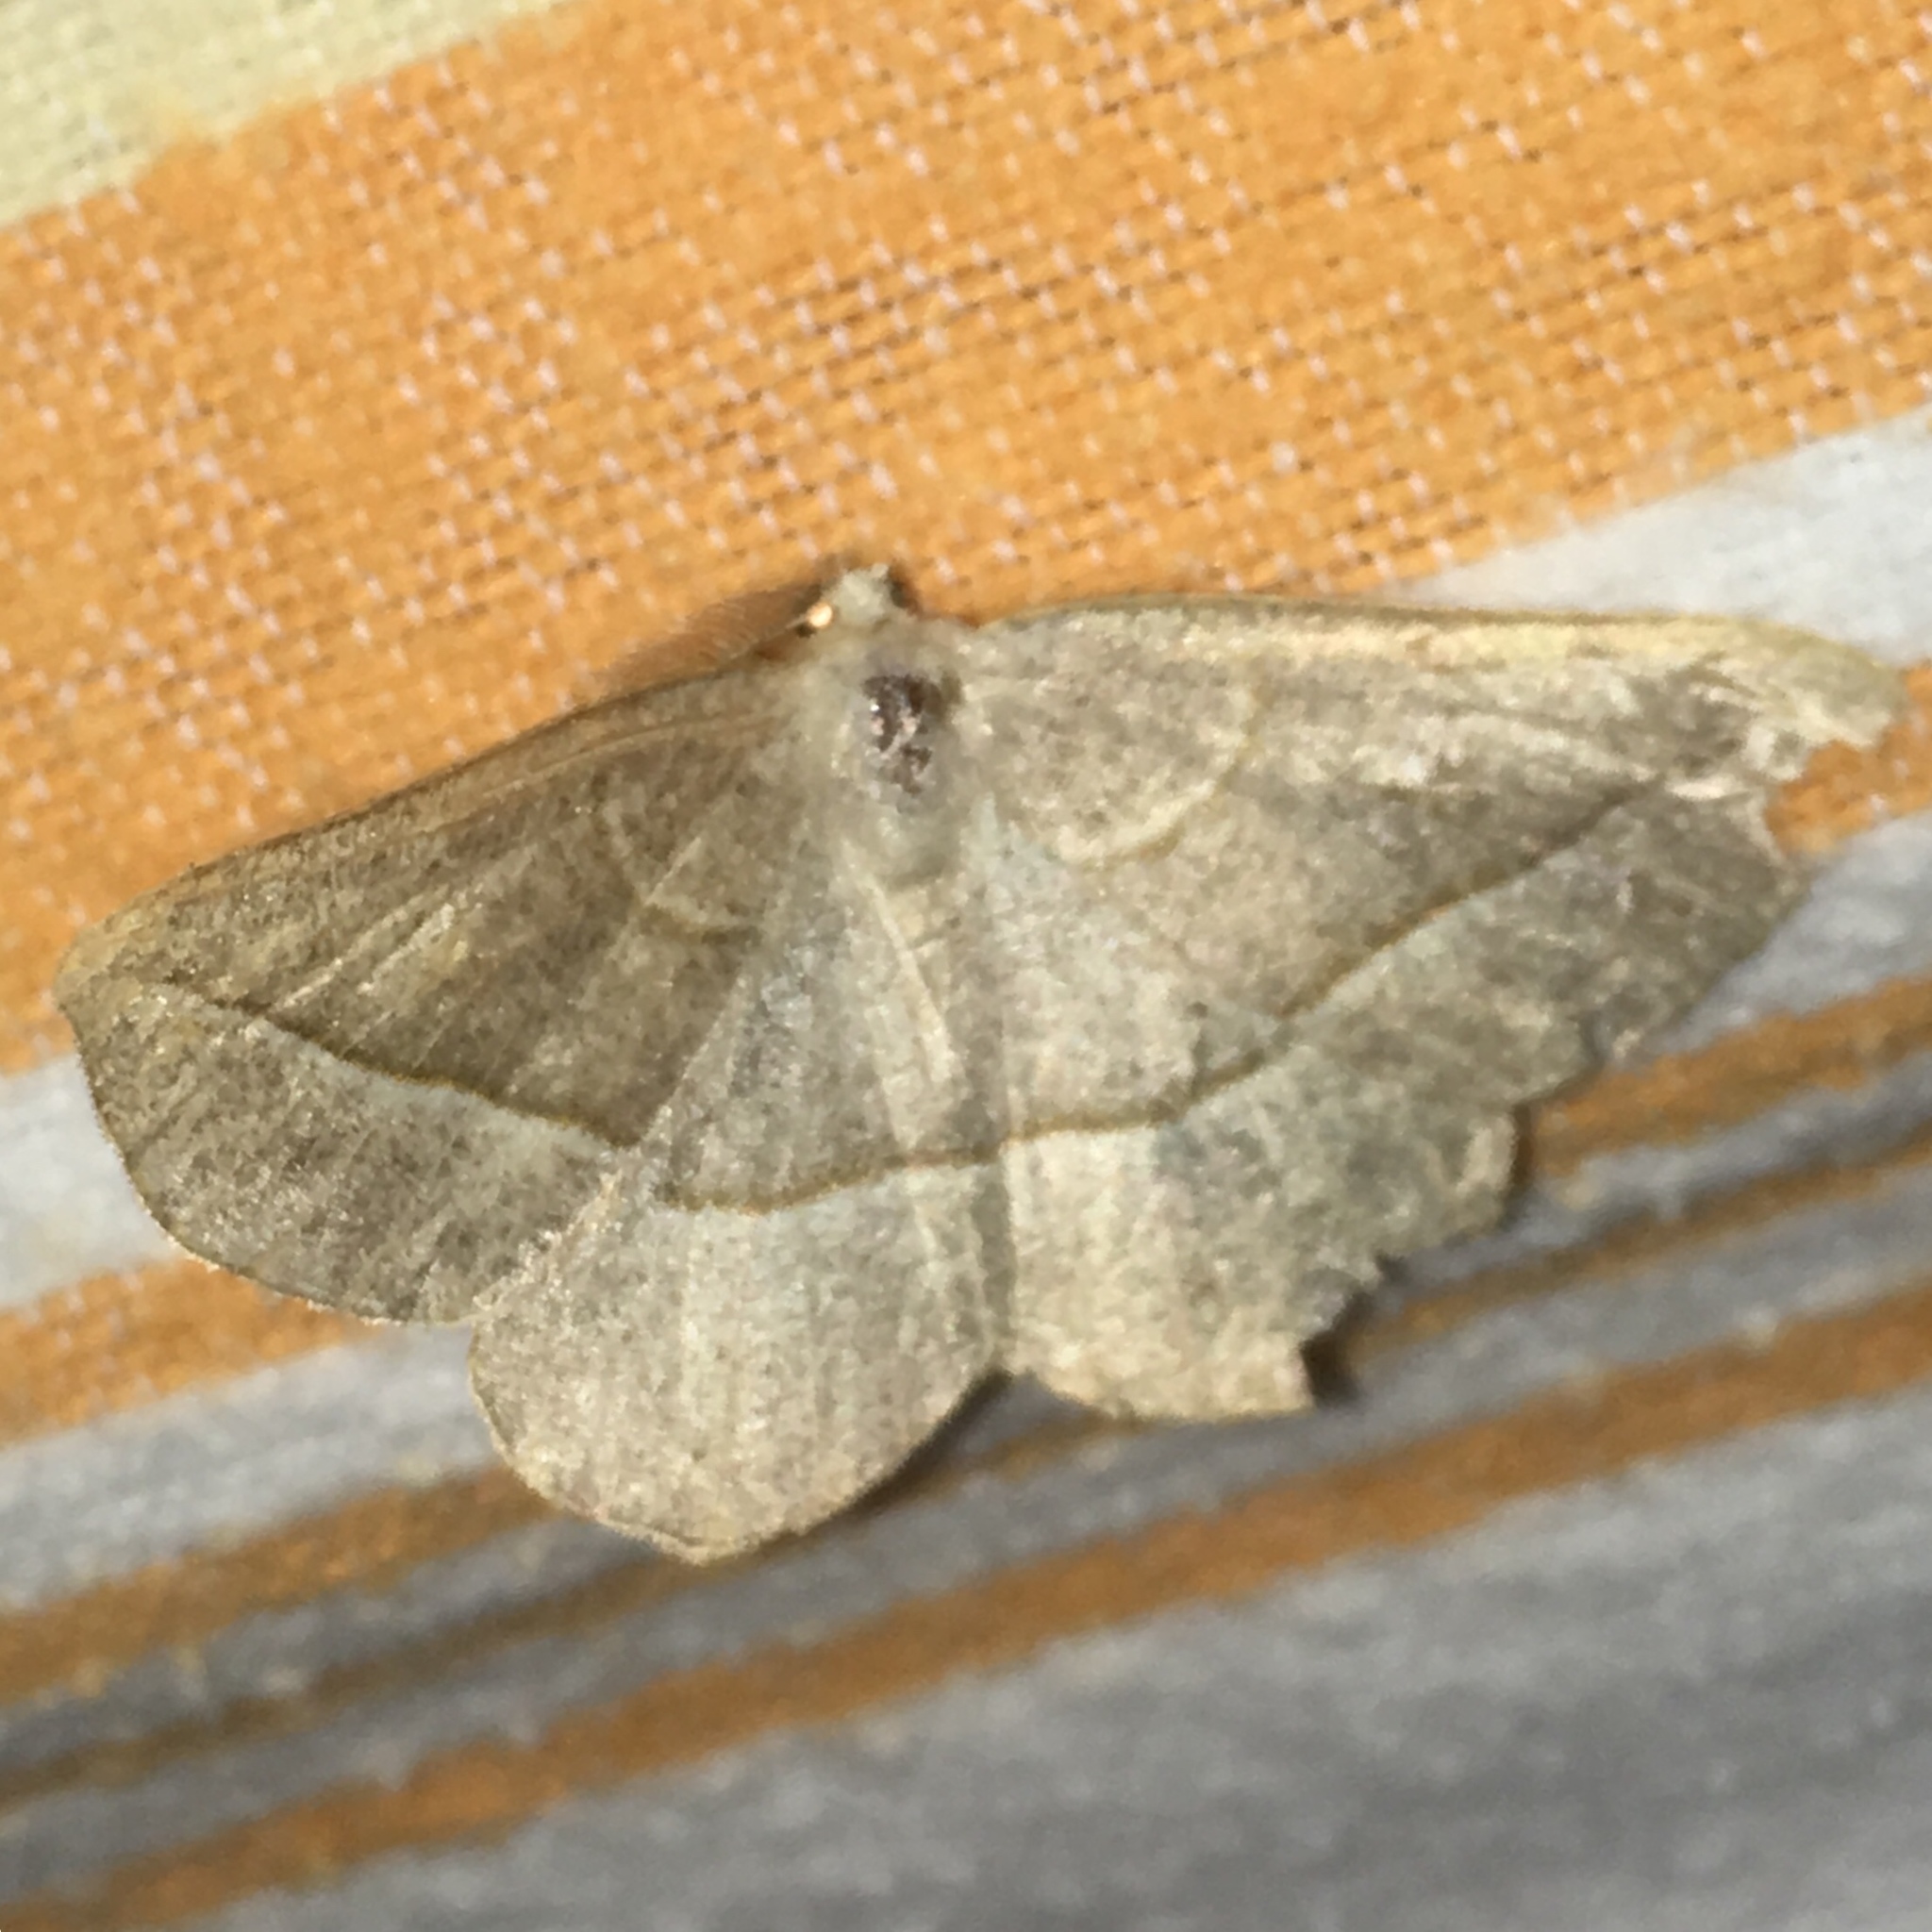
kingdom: Animalia
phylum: Arthropoda
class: Insecta
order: Lepidoptera
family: Geometridae
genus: Eusarca
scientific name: Eusarca confusaria
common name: Confused eusarca
